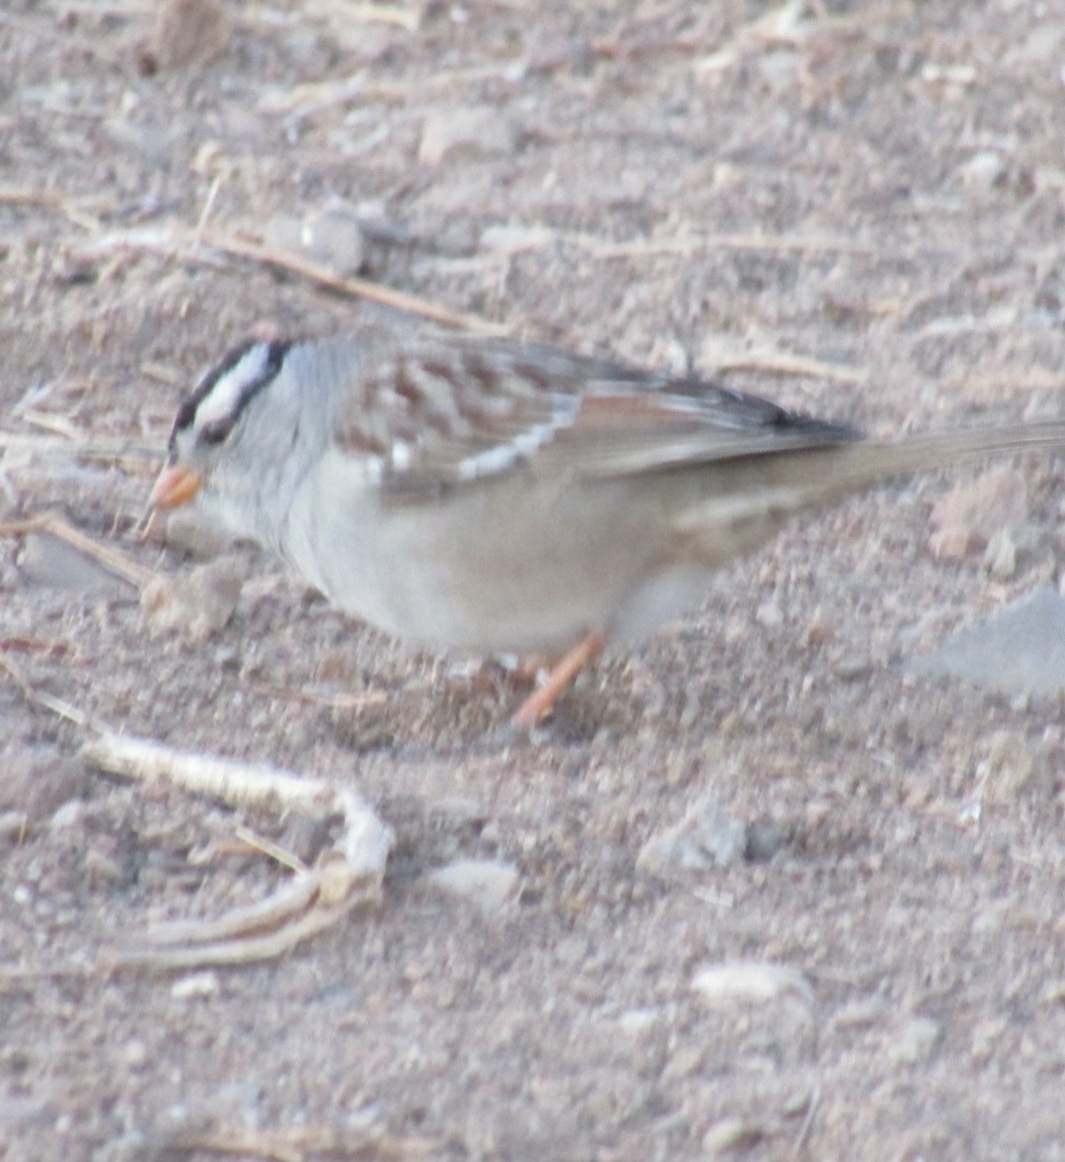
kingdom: Animalia
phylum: Chordata
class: Aves
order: Passeriformes
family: Passerellidae
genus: Zonotrichia
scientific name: Zonotrichia leucophrys
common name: White-crowned sparrow
